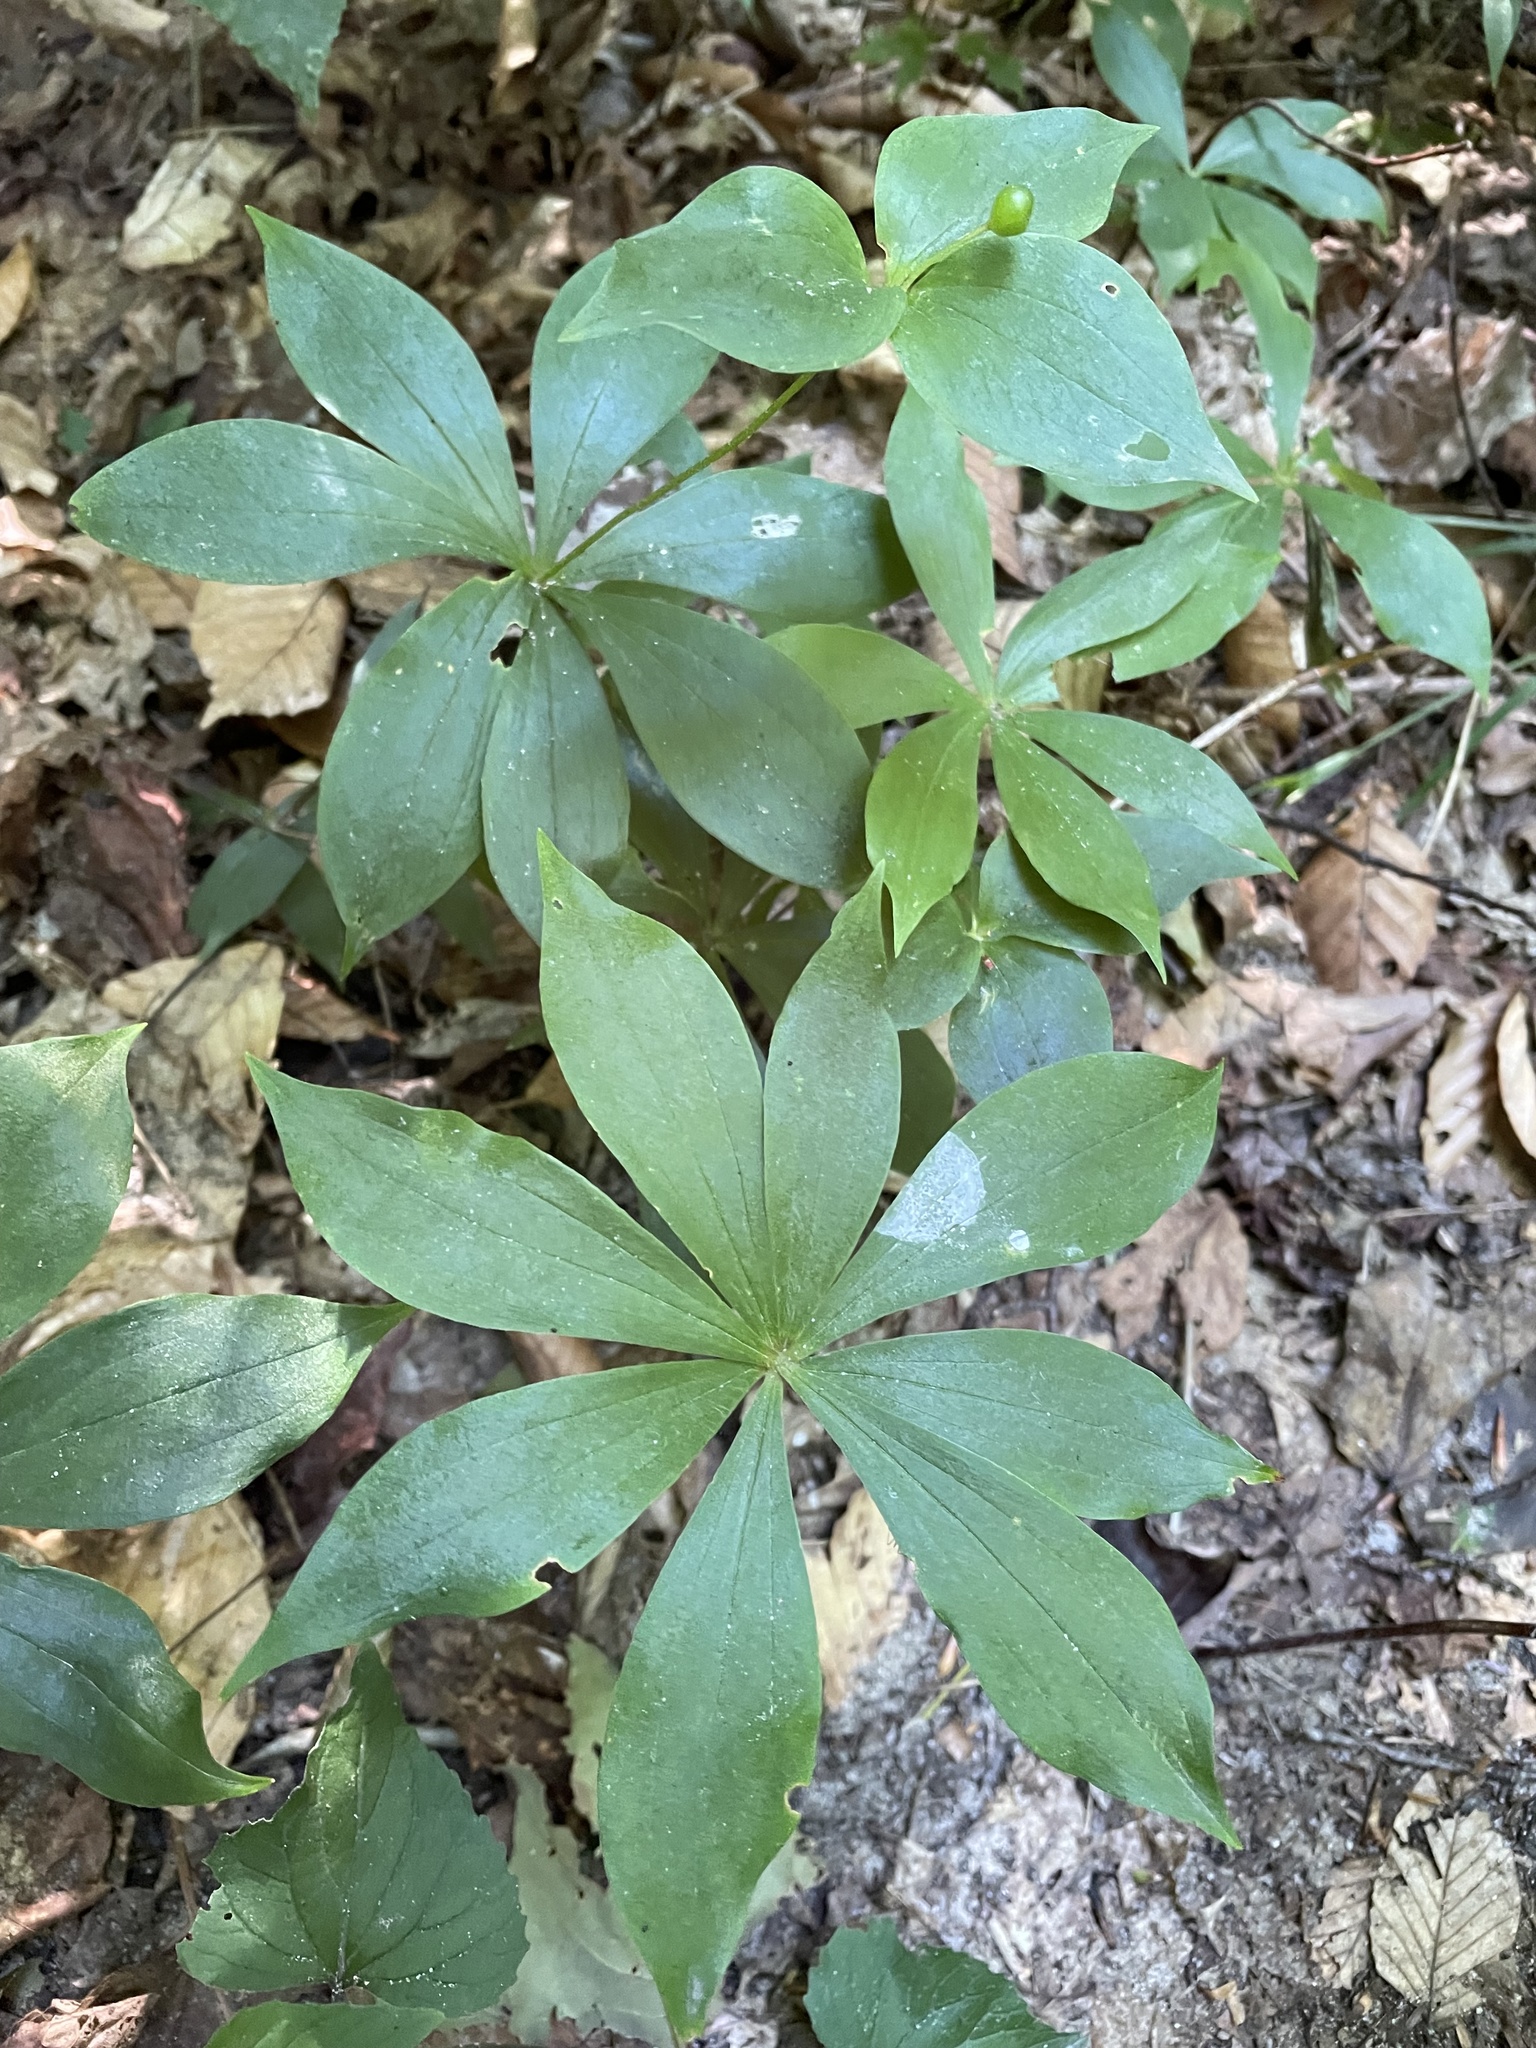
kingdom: Plantae
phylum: Tracheophyta
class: Liliopsida
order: Liliales
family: Liliaceae
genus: Medeola
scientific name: Medeola virginiana
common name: Indian cucumber-root
